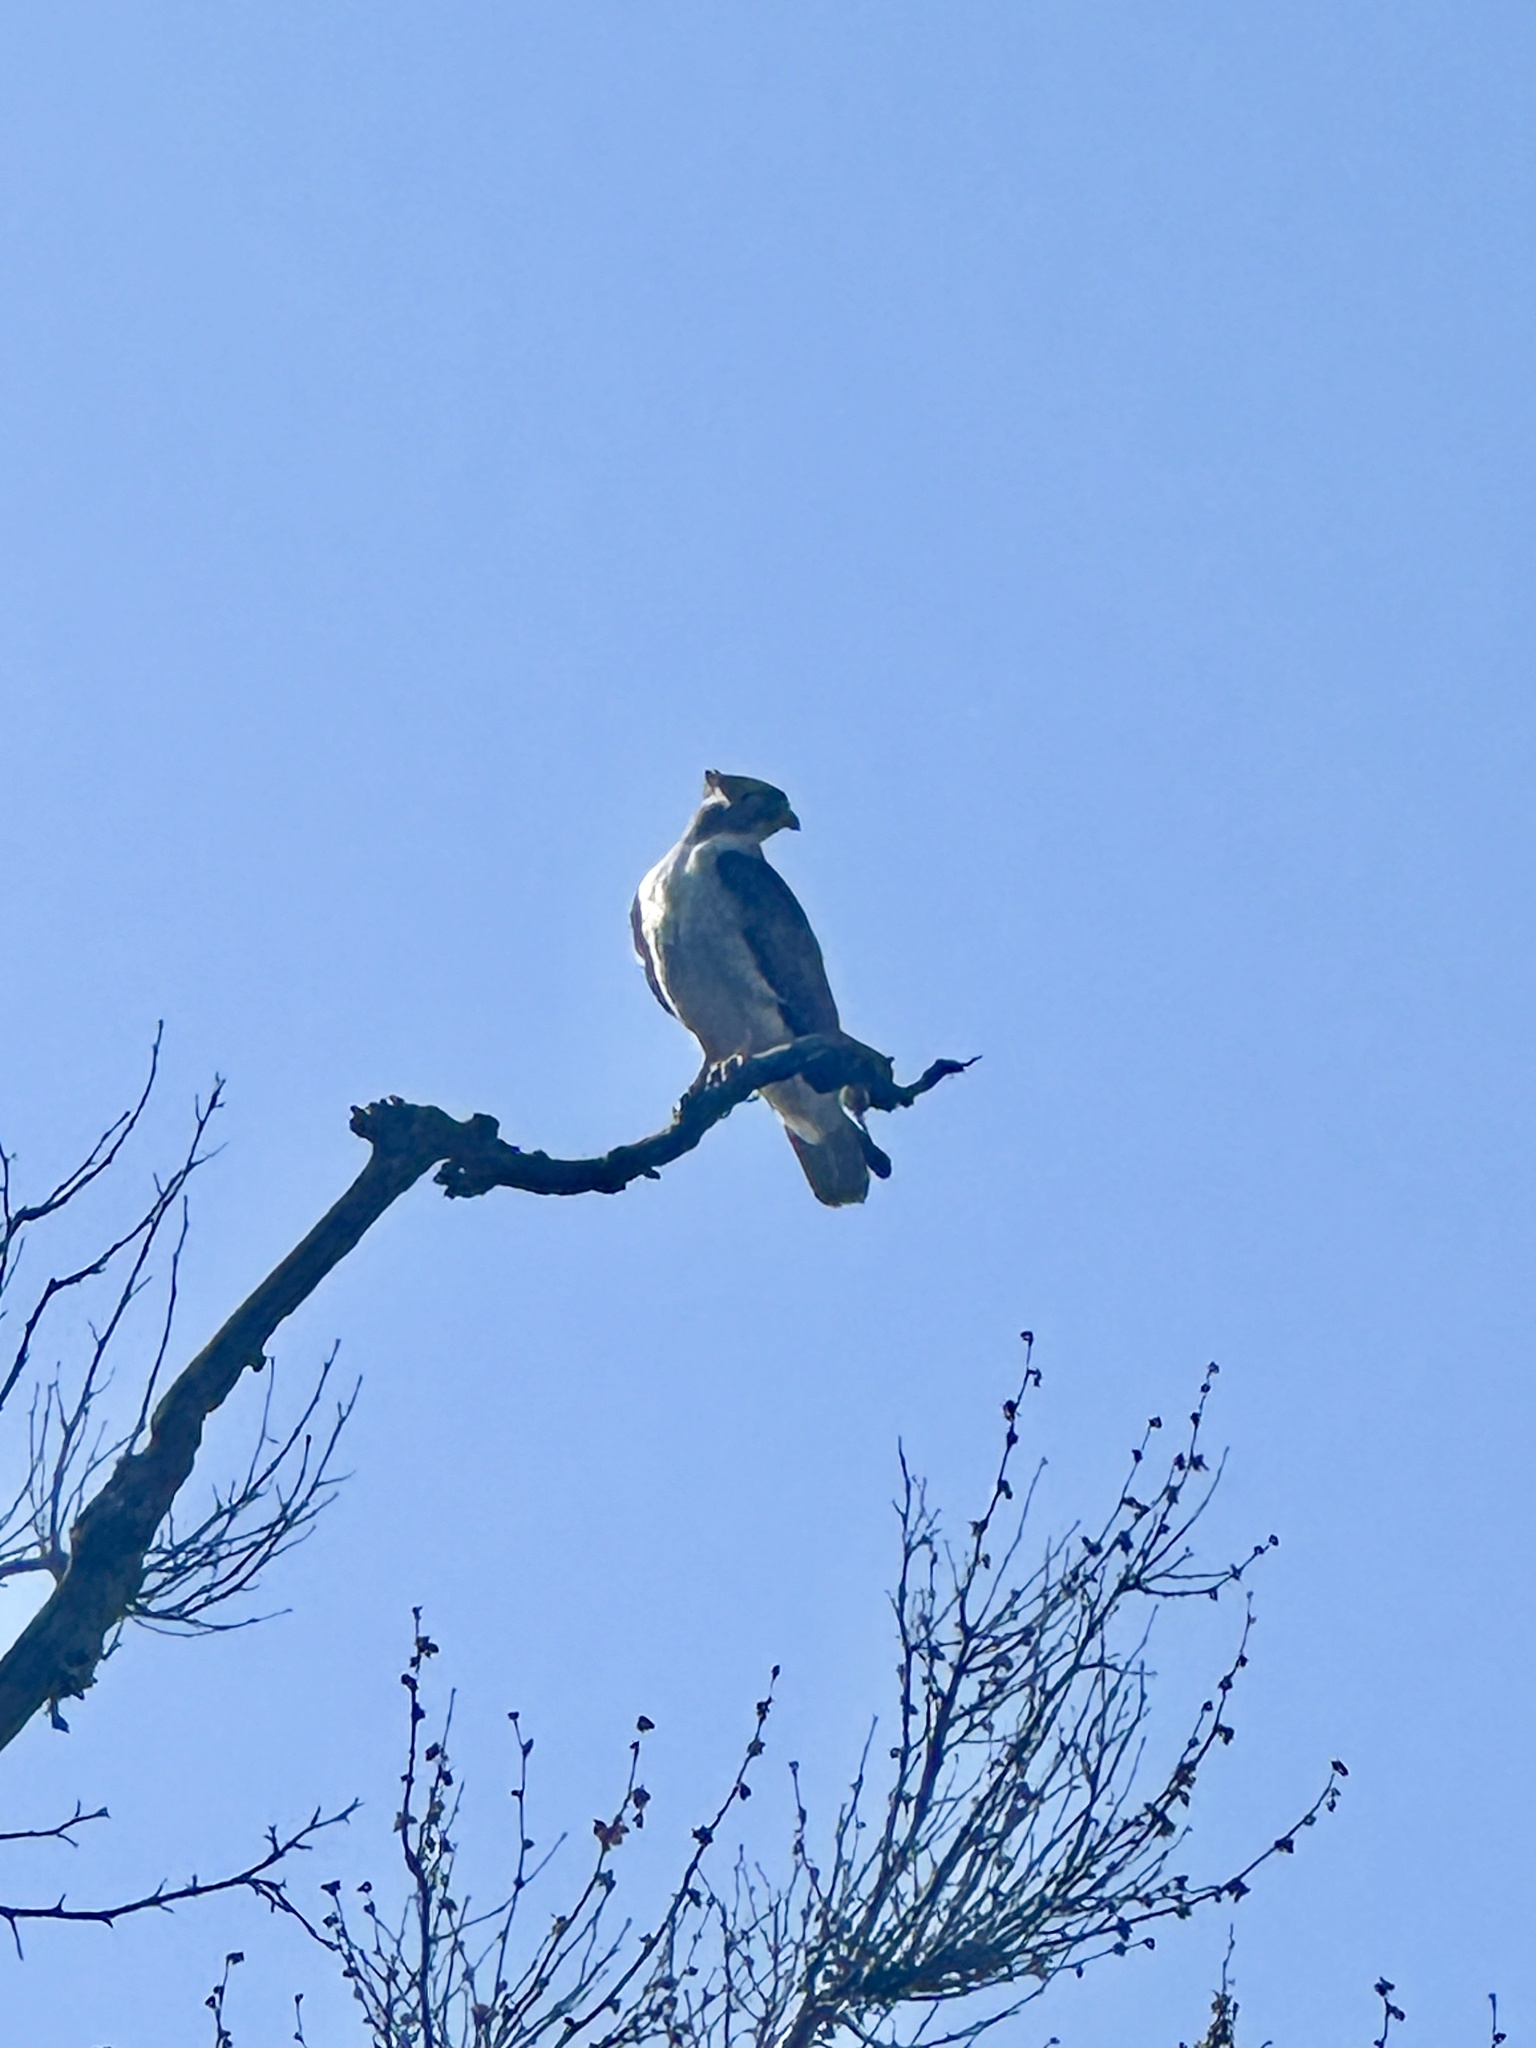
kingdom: Animalia
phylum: Chordata
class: Aves
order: Accipitriformes
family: Accipitridae
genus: Buteo
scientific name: Buteo jamaicensis
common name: Red-tailed hawk
